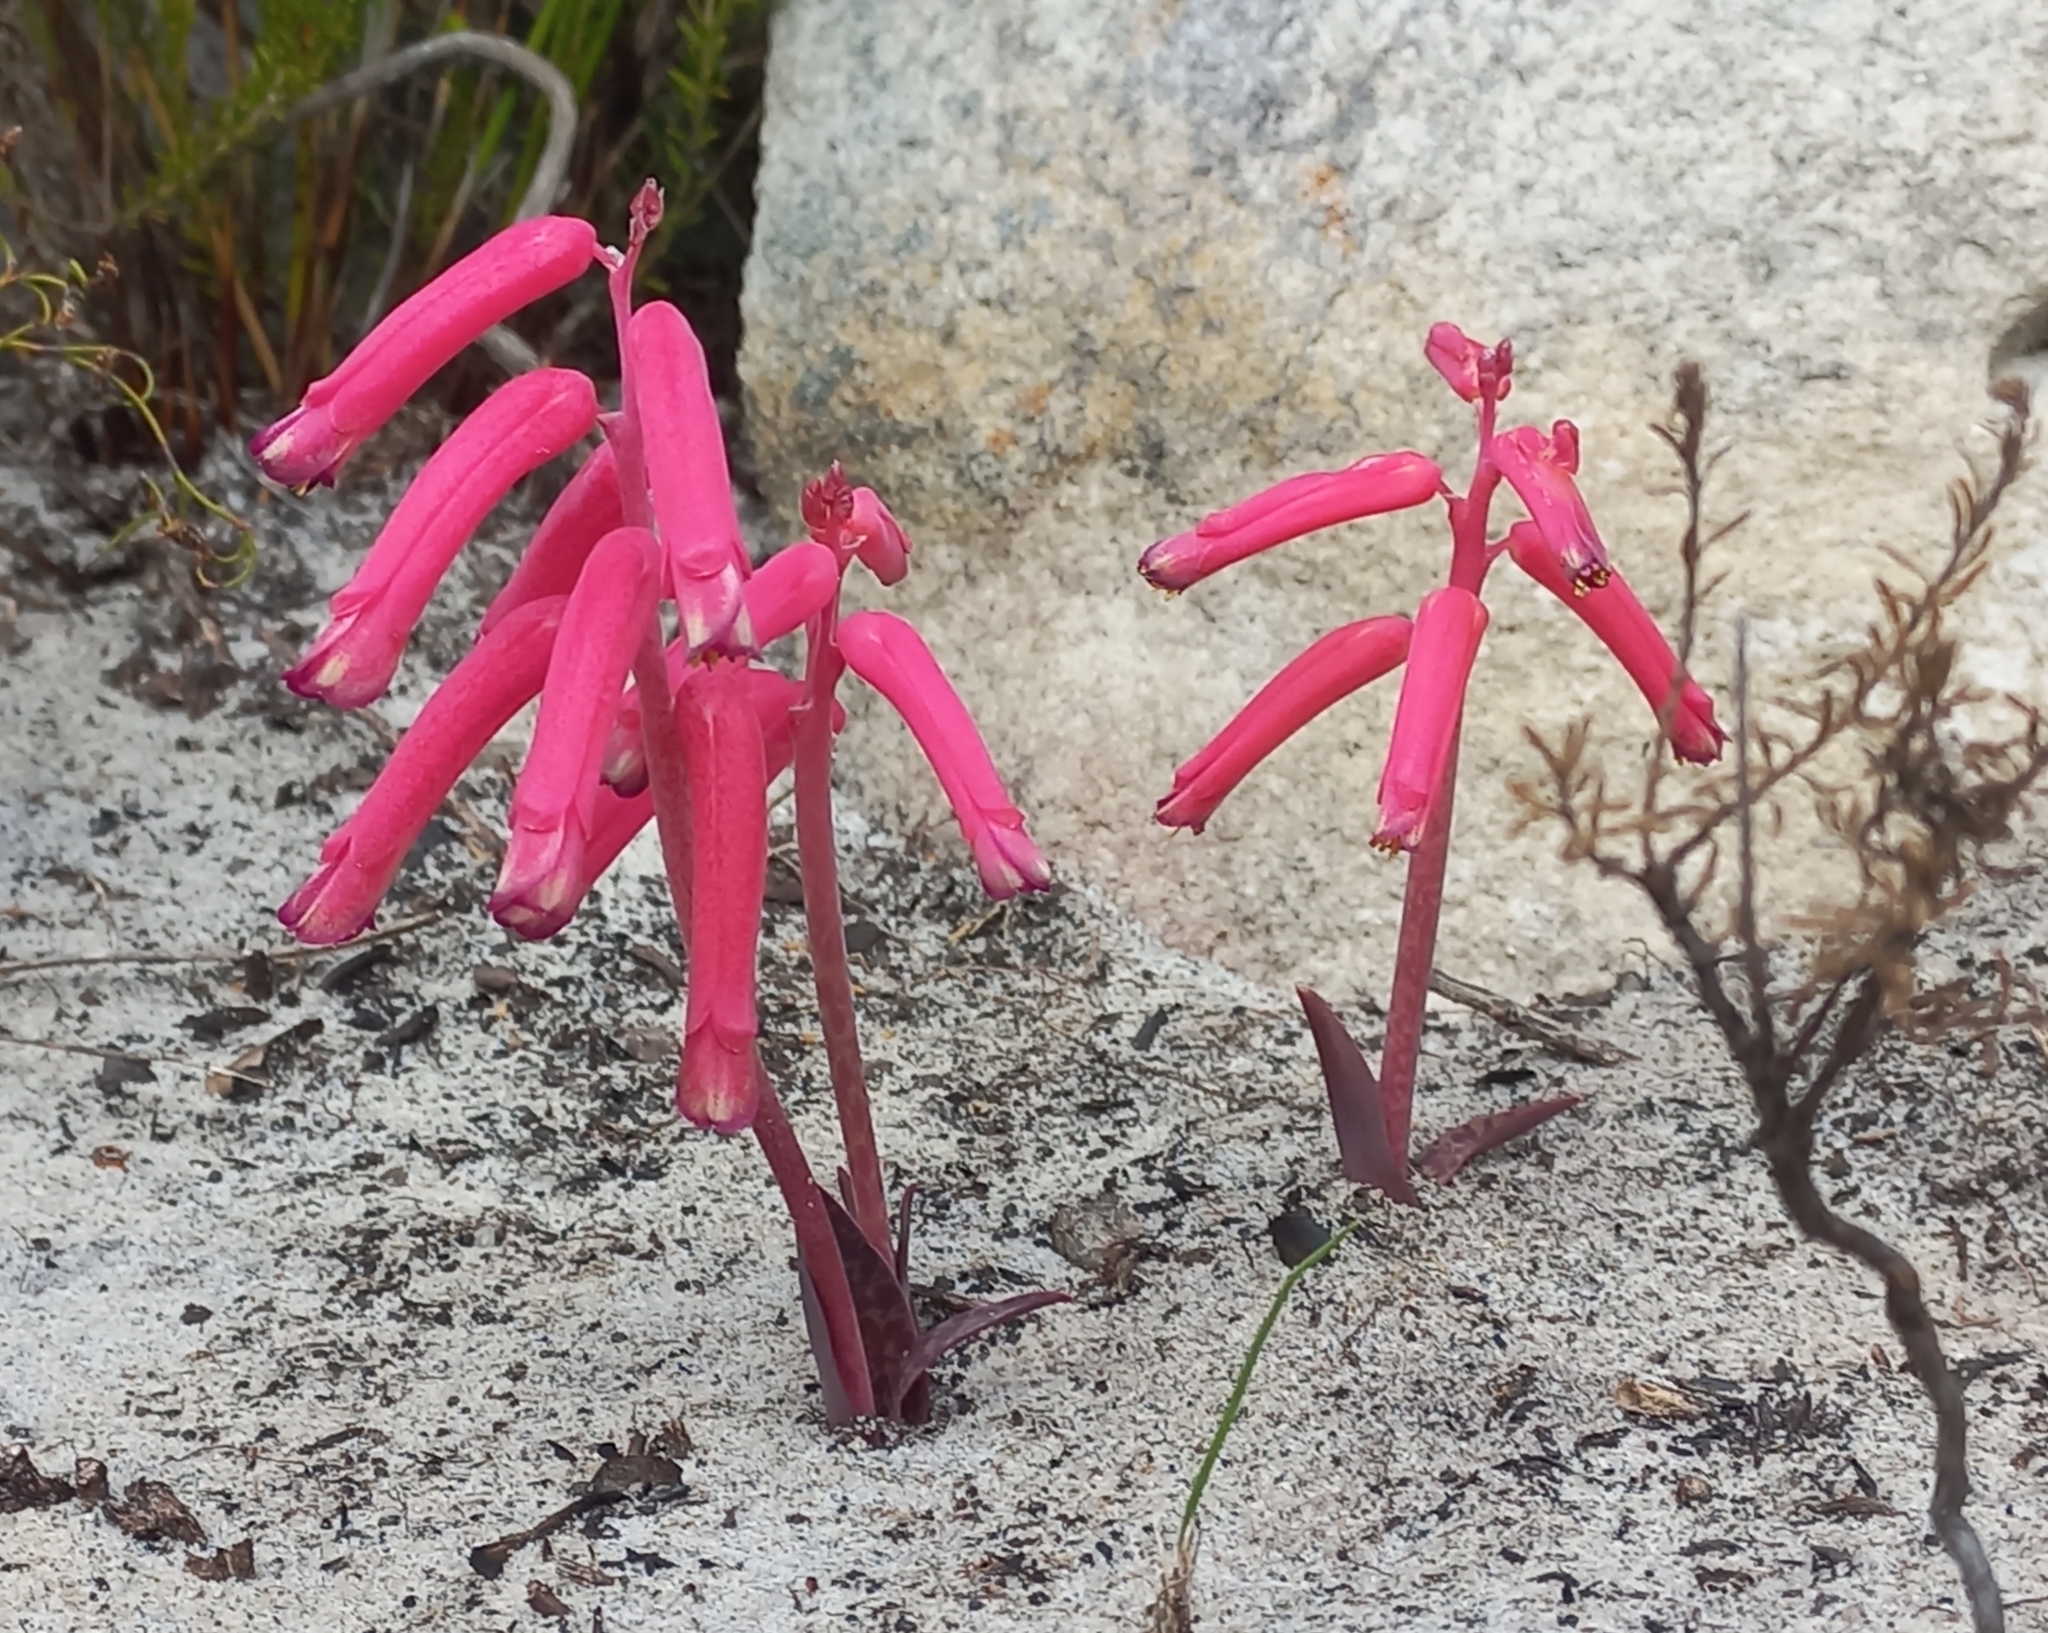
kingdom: Plantae
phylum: Tracheophyta
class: Liliopsida
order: Asparagales
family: Asparagaceae
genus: Lachenalia
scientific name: Lachenalia punctata
